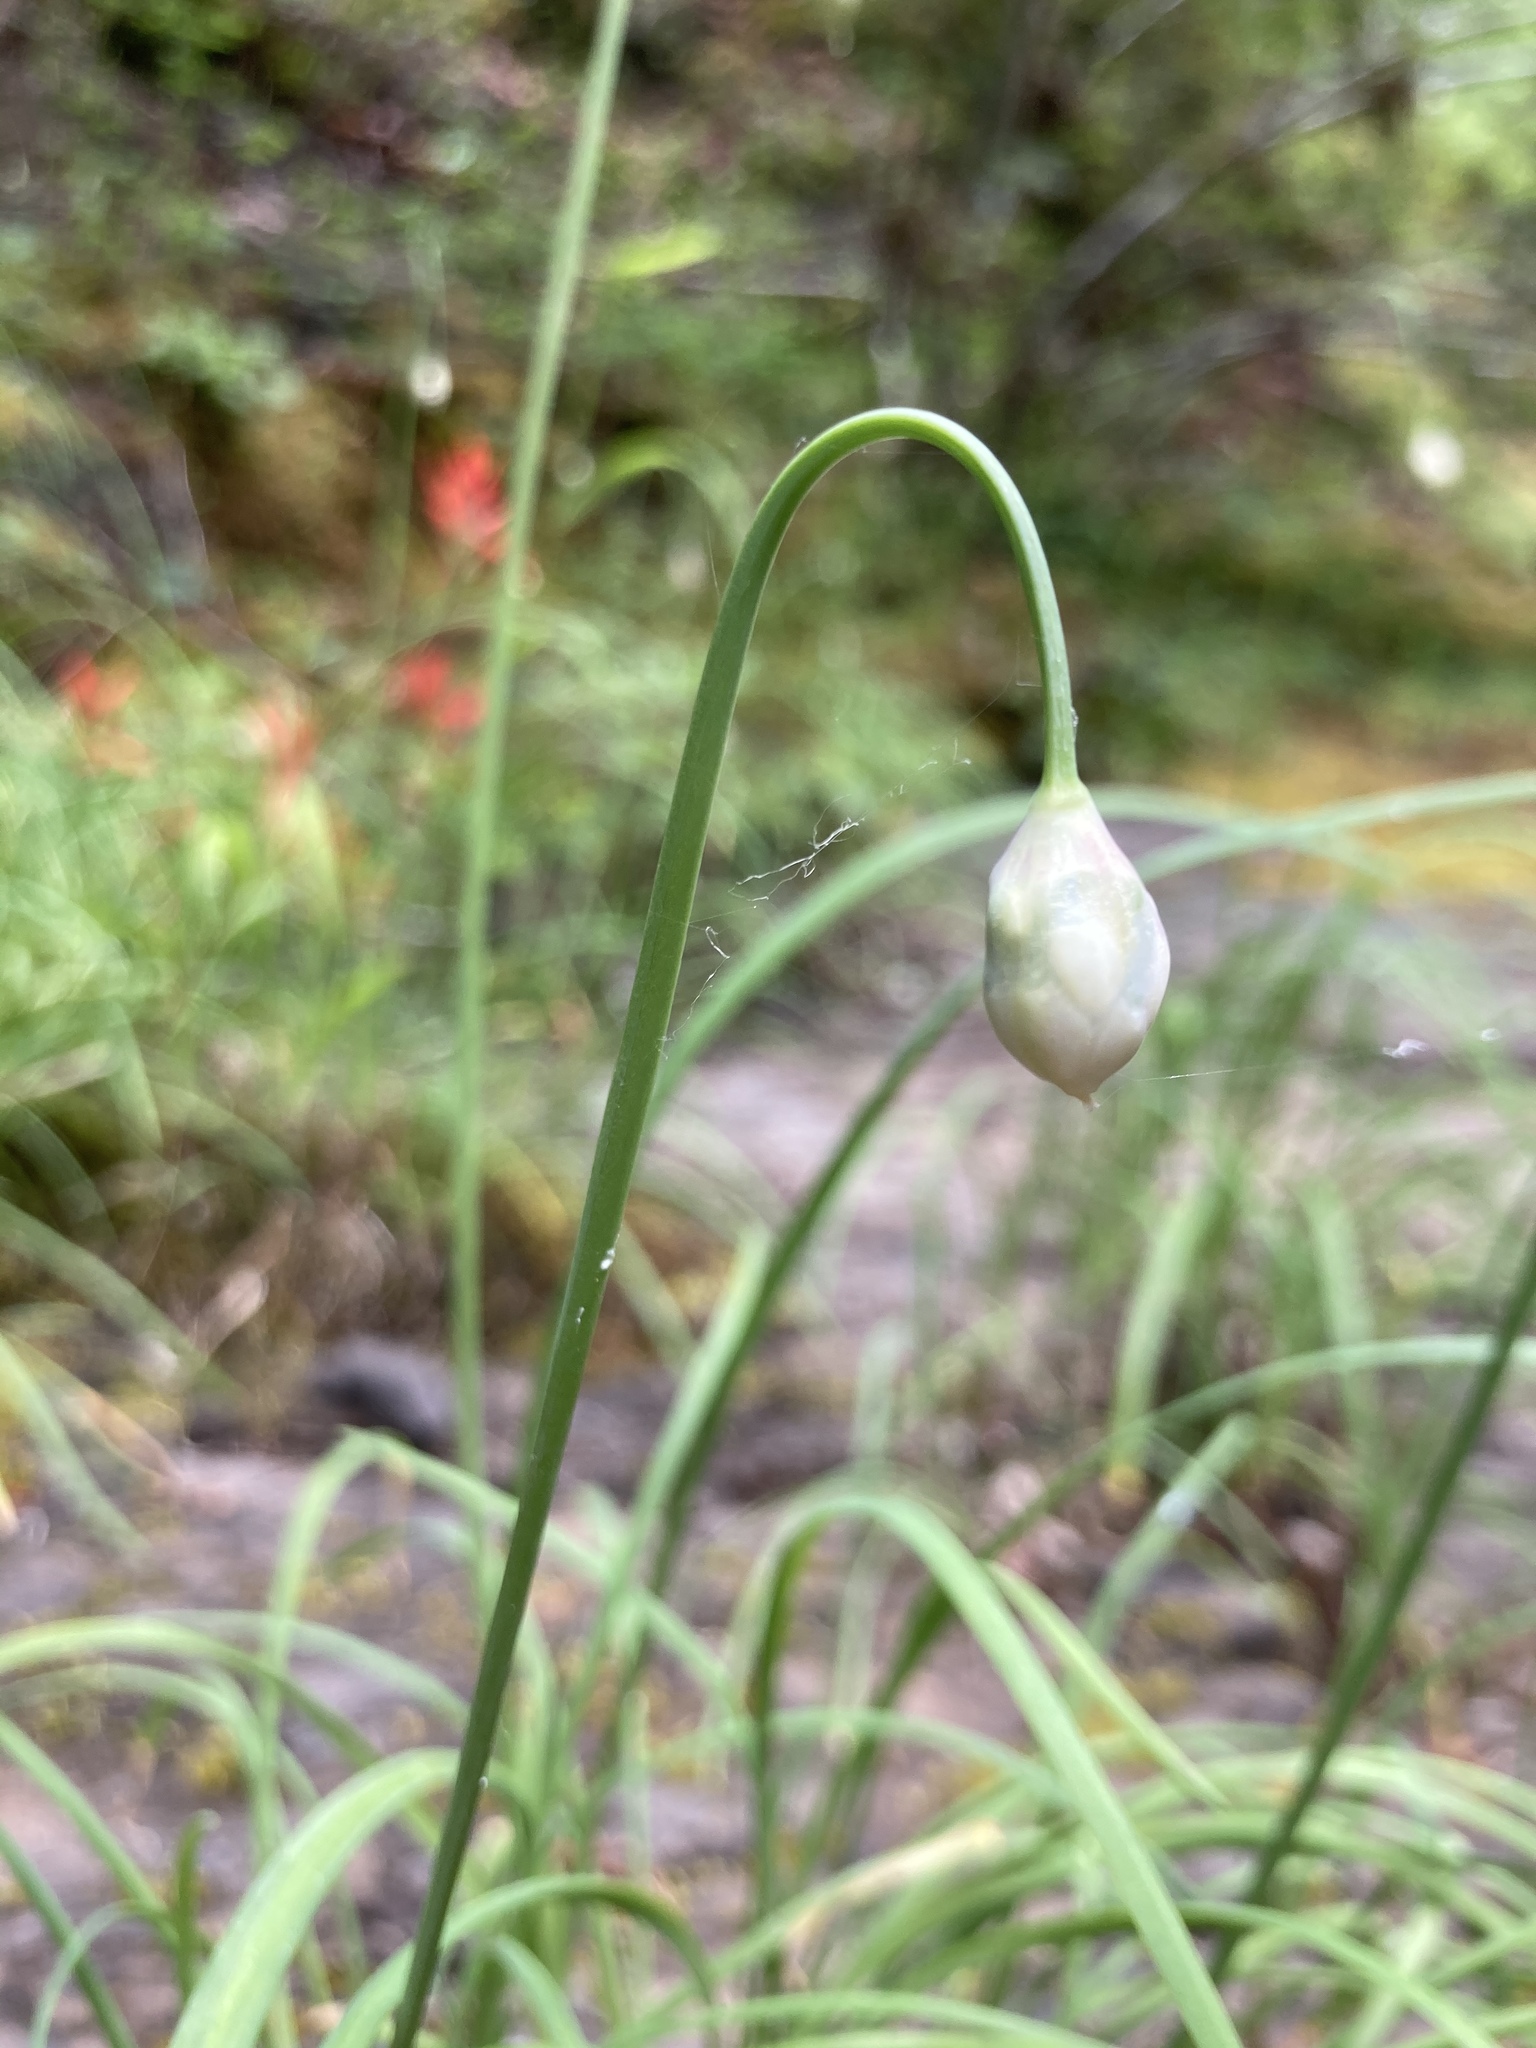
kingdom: Plantae
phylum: Tracheophyta
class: Liliopsida
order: Asparagales
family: Amaryllidaceae
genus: Allium
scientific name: Allium cernuum
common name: Nodding onion
